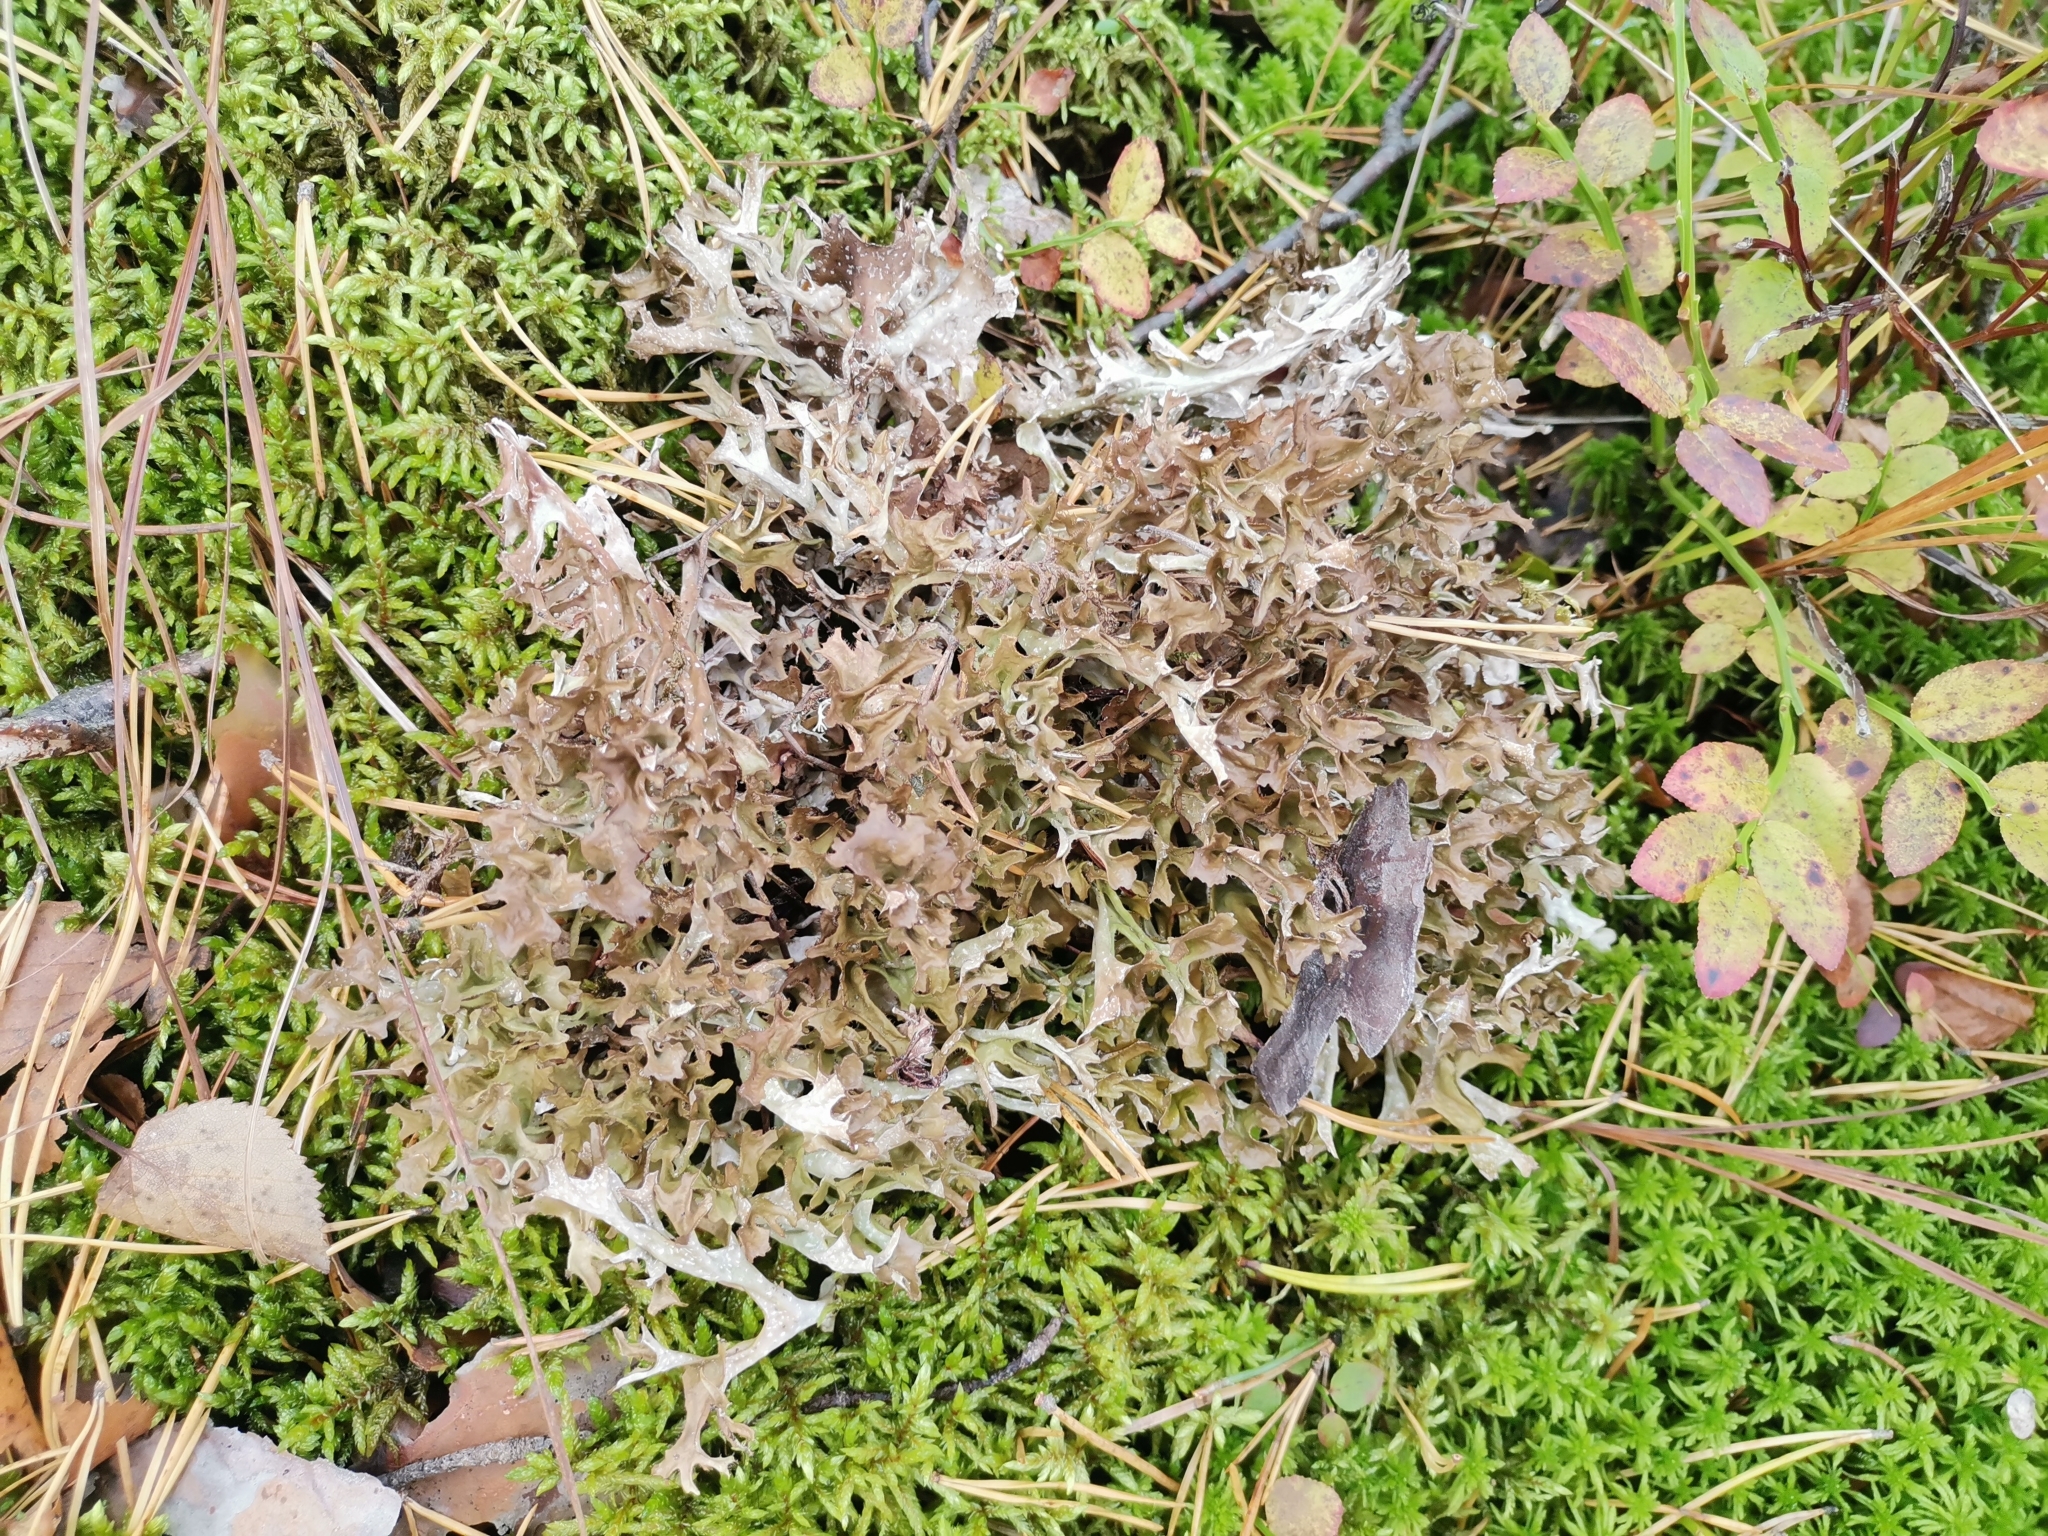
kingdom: Fungi
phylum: Ascomycota
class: Lecanoromycetes
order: Lecanorales
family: Parmeliaceae
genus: Cetraria
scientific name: Cetraria islandica
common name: Iceland lichen
